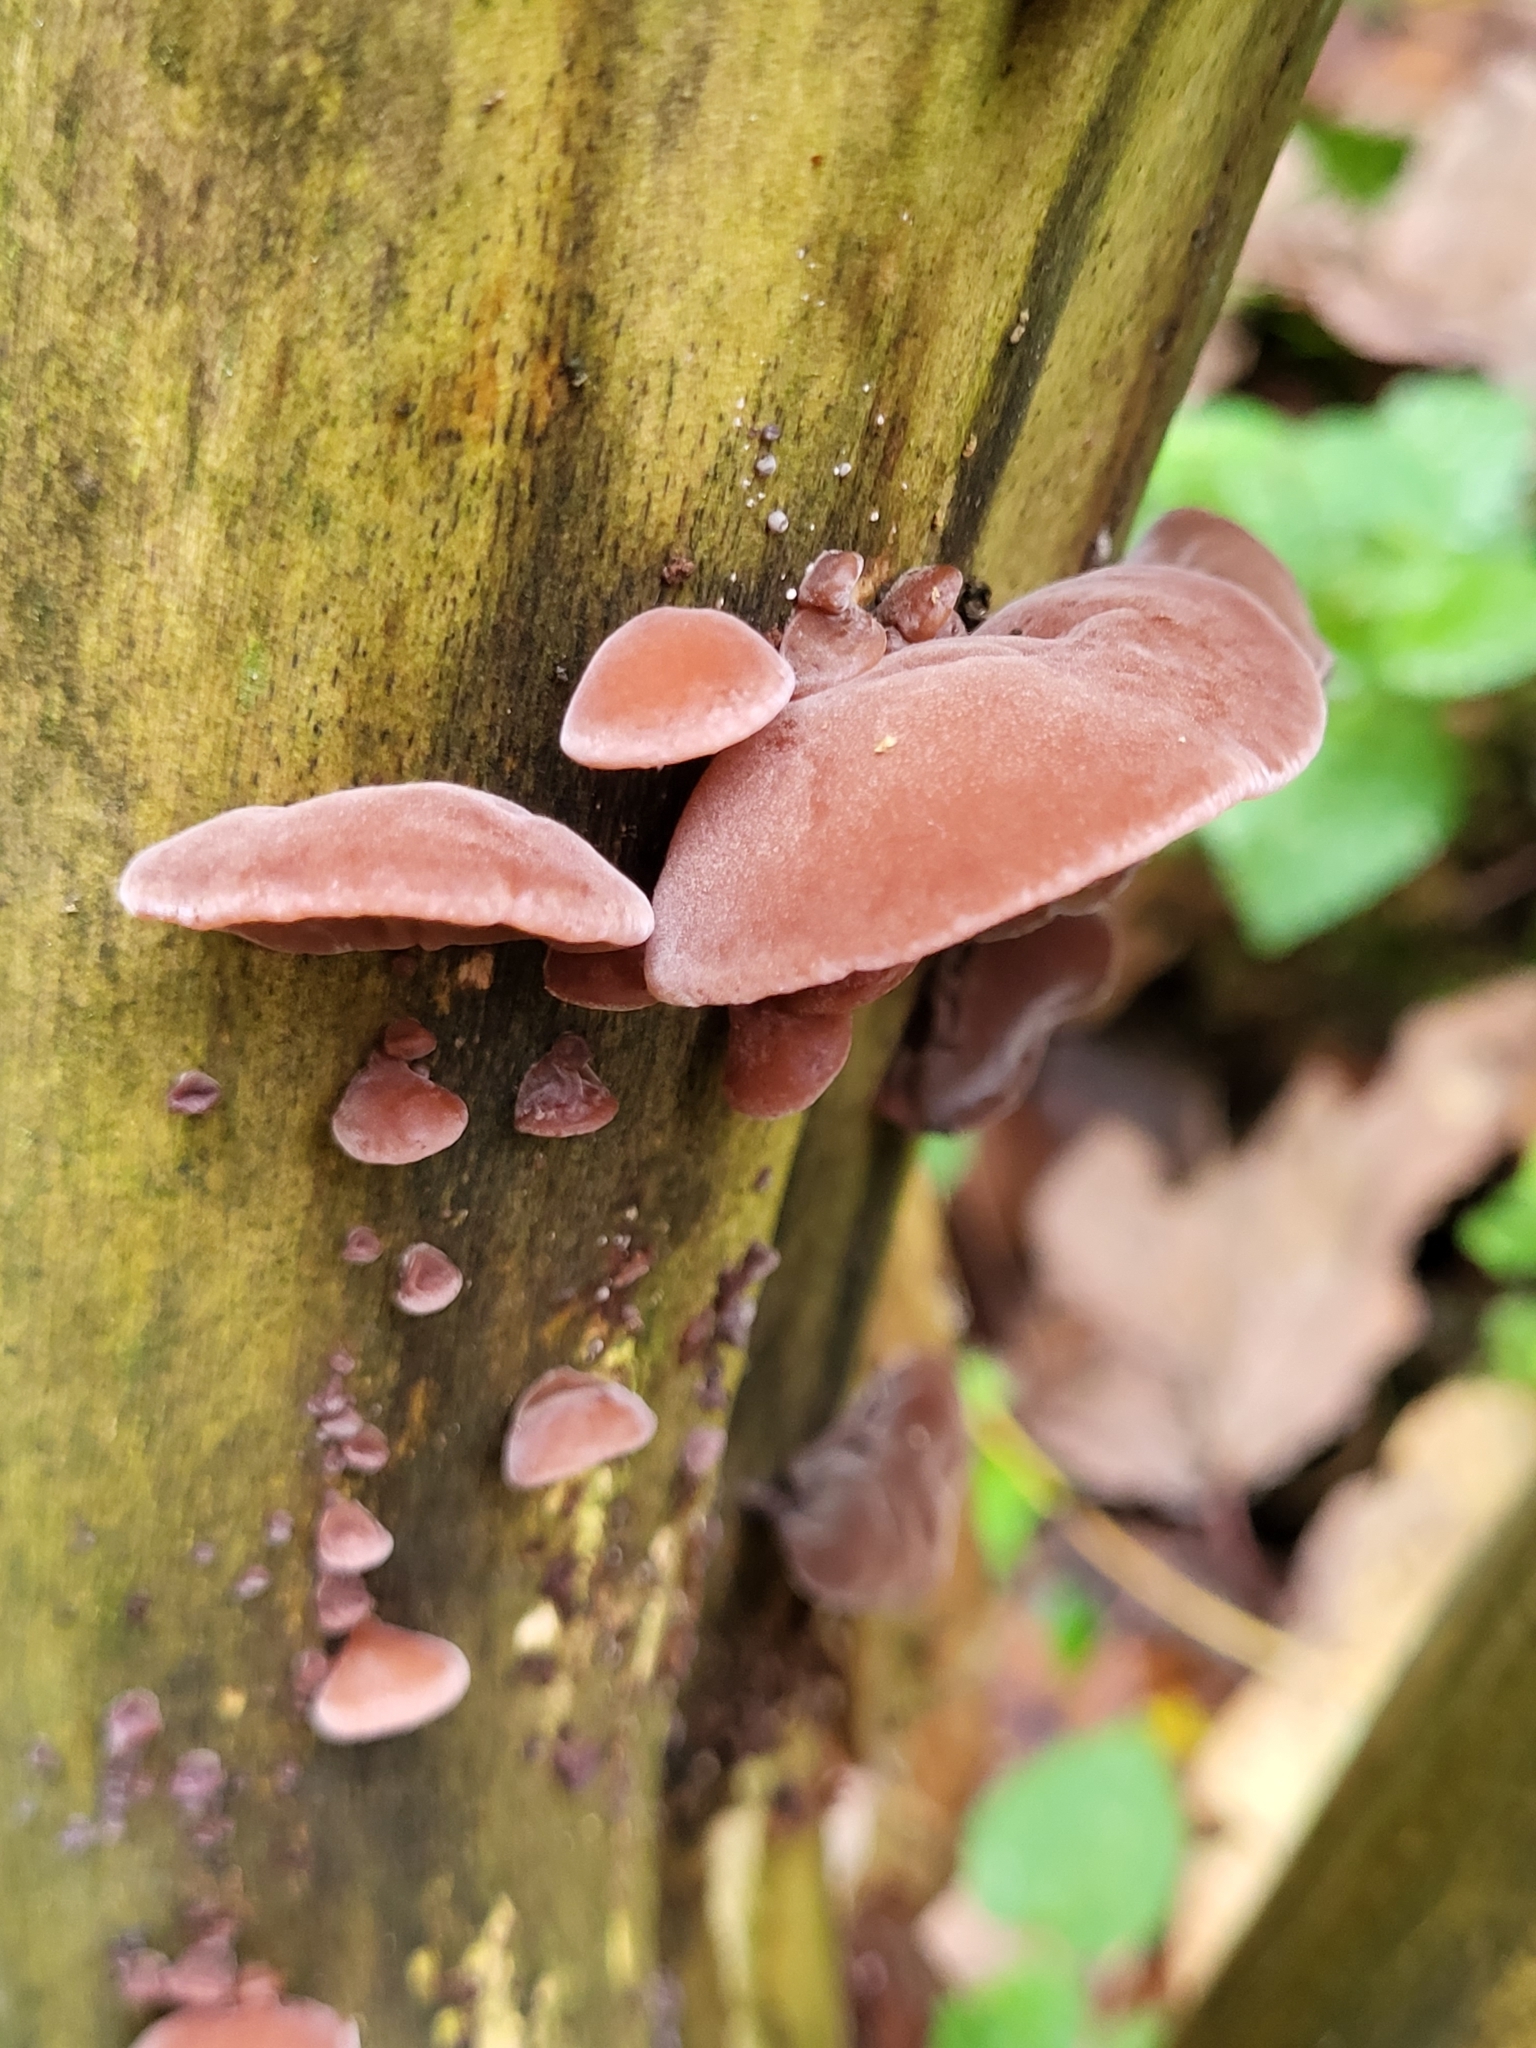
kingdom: Fungi
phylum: Basidiomycota
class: Agaricomycetes
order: Auriculariales
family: Auriculariaceae
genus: Auricularia
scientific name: Auricularia auricula-judae
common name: Jelly ear
